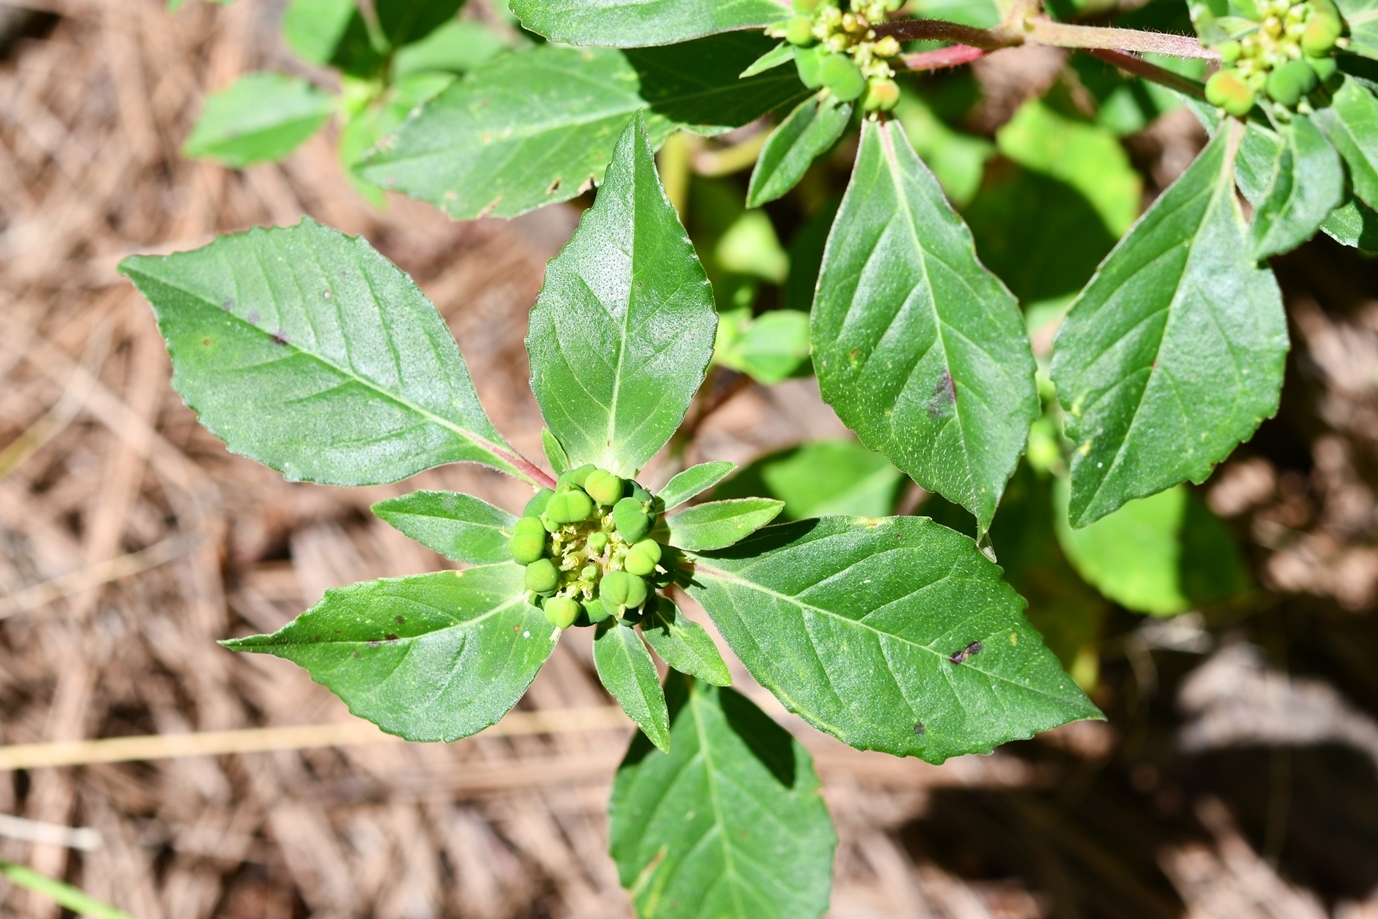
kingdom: Plantae
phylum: Tracheophyta
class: Magnoliopsida
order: Malpighiales
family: Euphorbiaceae
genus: Euphorbia
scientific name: Euphorbia dentata
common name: Dentate spurge
